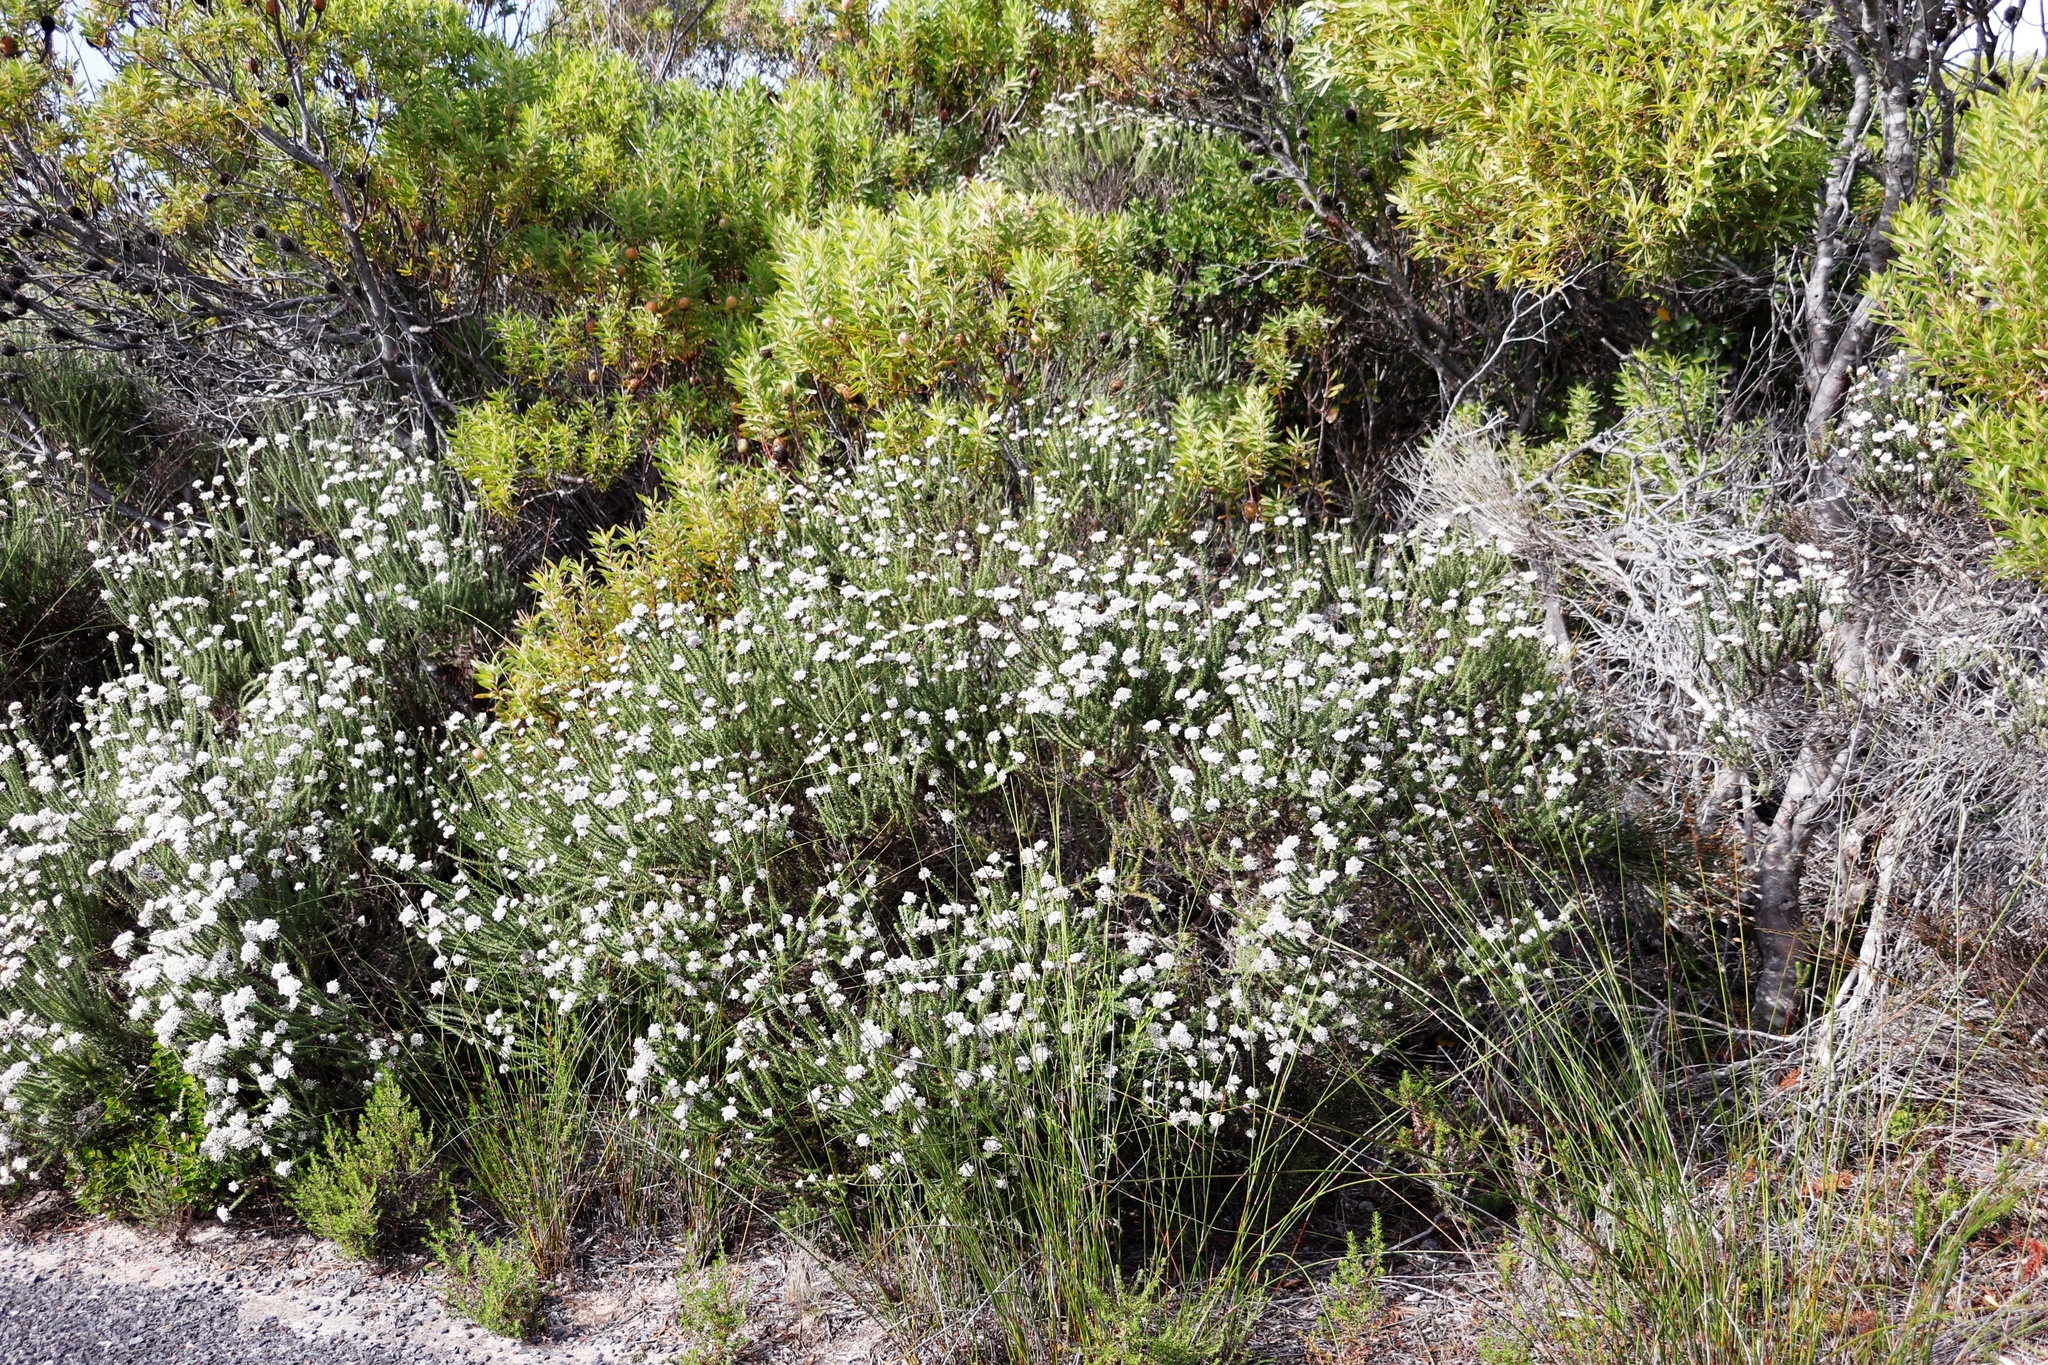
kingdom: Plantae
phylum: Tracheophyta
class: Magnoliopsida
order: Asterales
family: Asteraceae
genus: Metalasia
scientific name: Metalasia muricata
